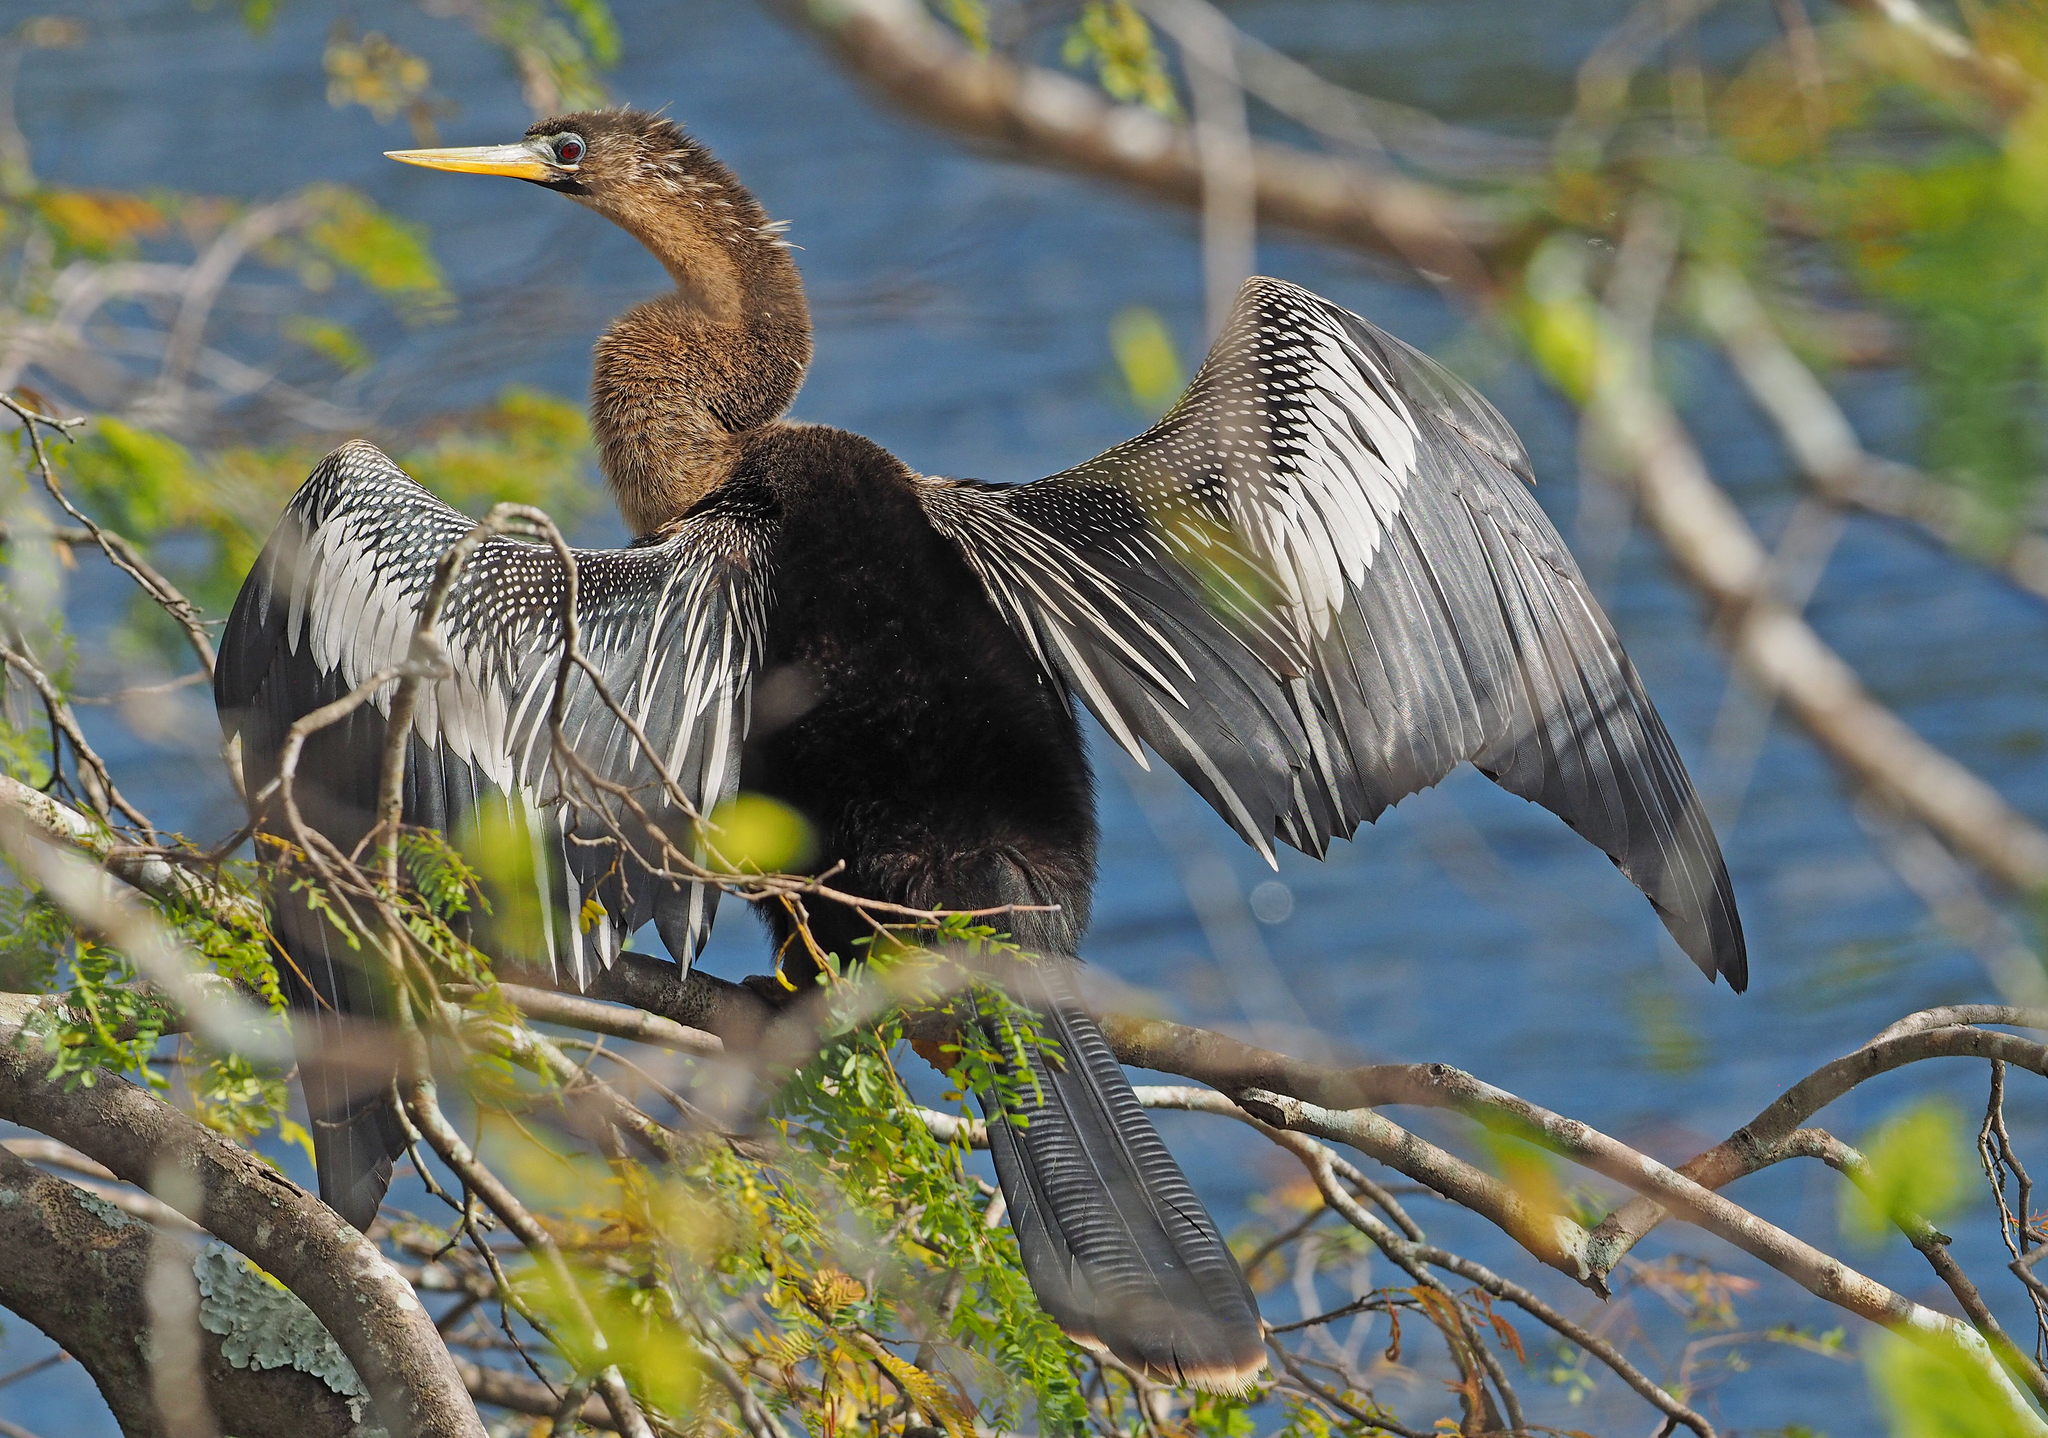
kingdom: Animalia
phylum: Chordata
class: Aves
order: Suliformes
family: Anhingidae
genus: Anhinga
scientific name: Anhinga anhinga
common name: Anhinga
